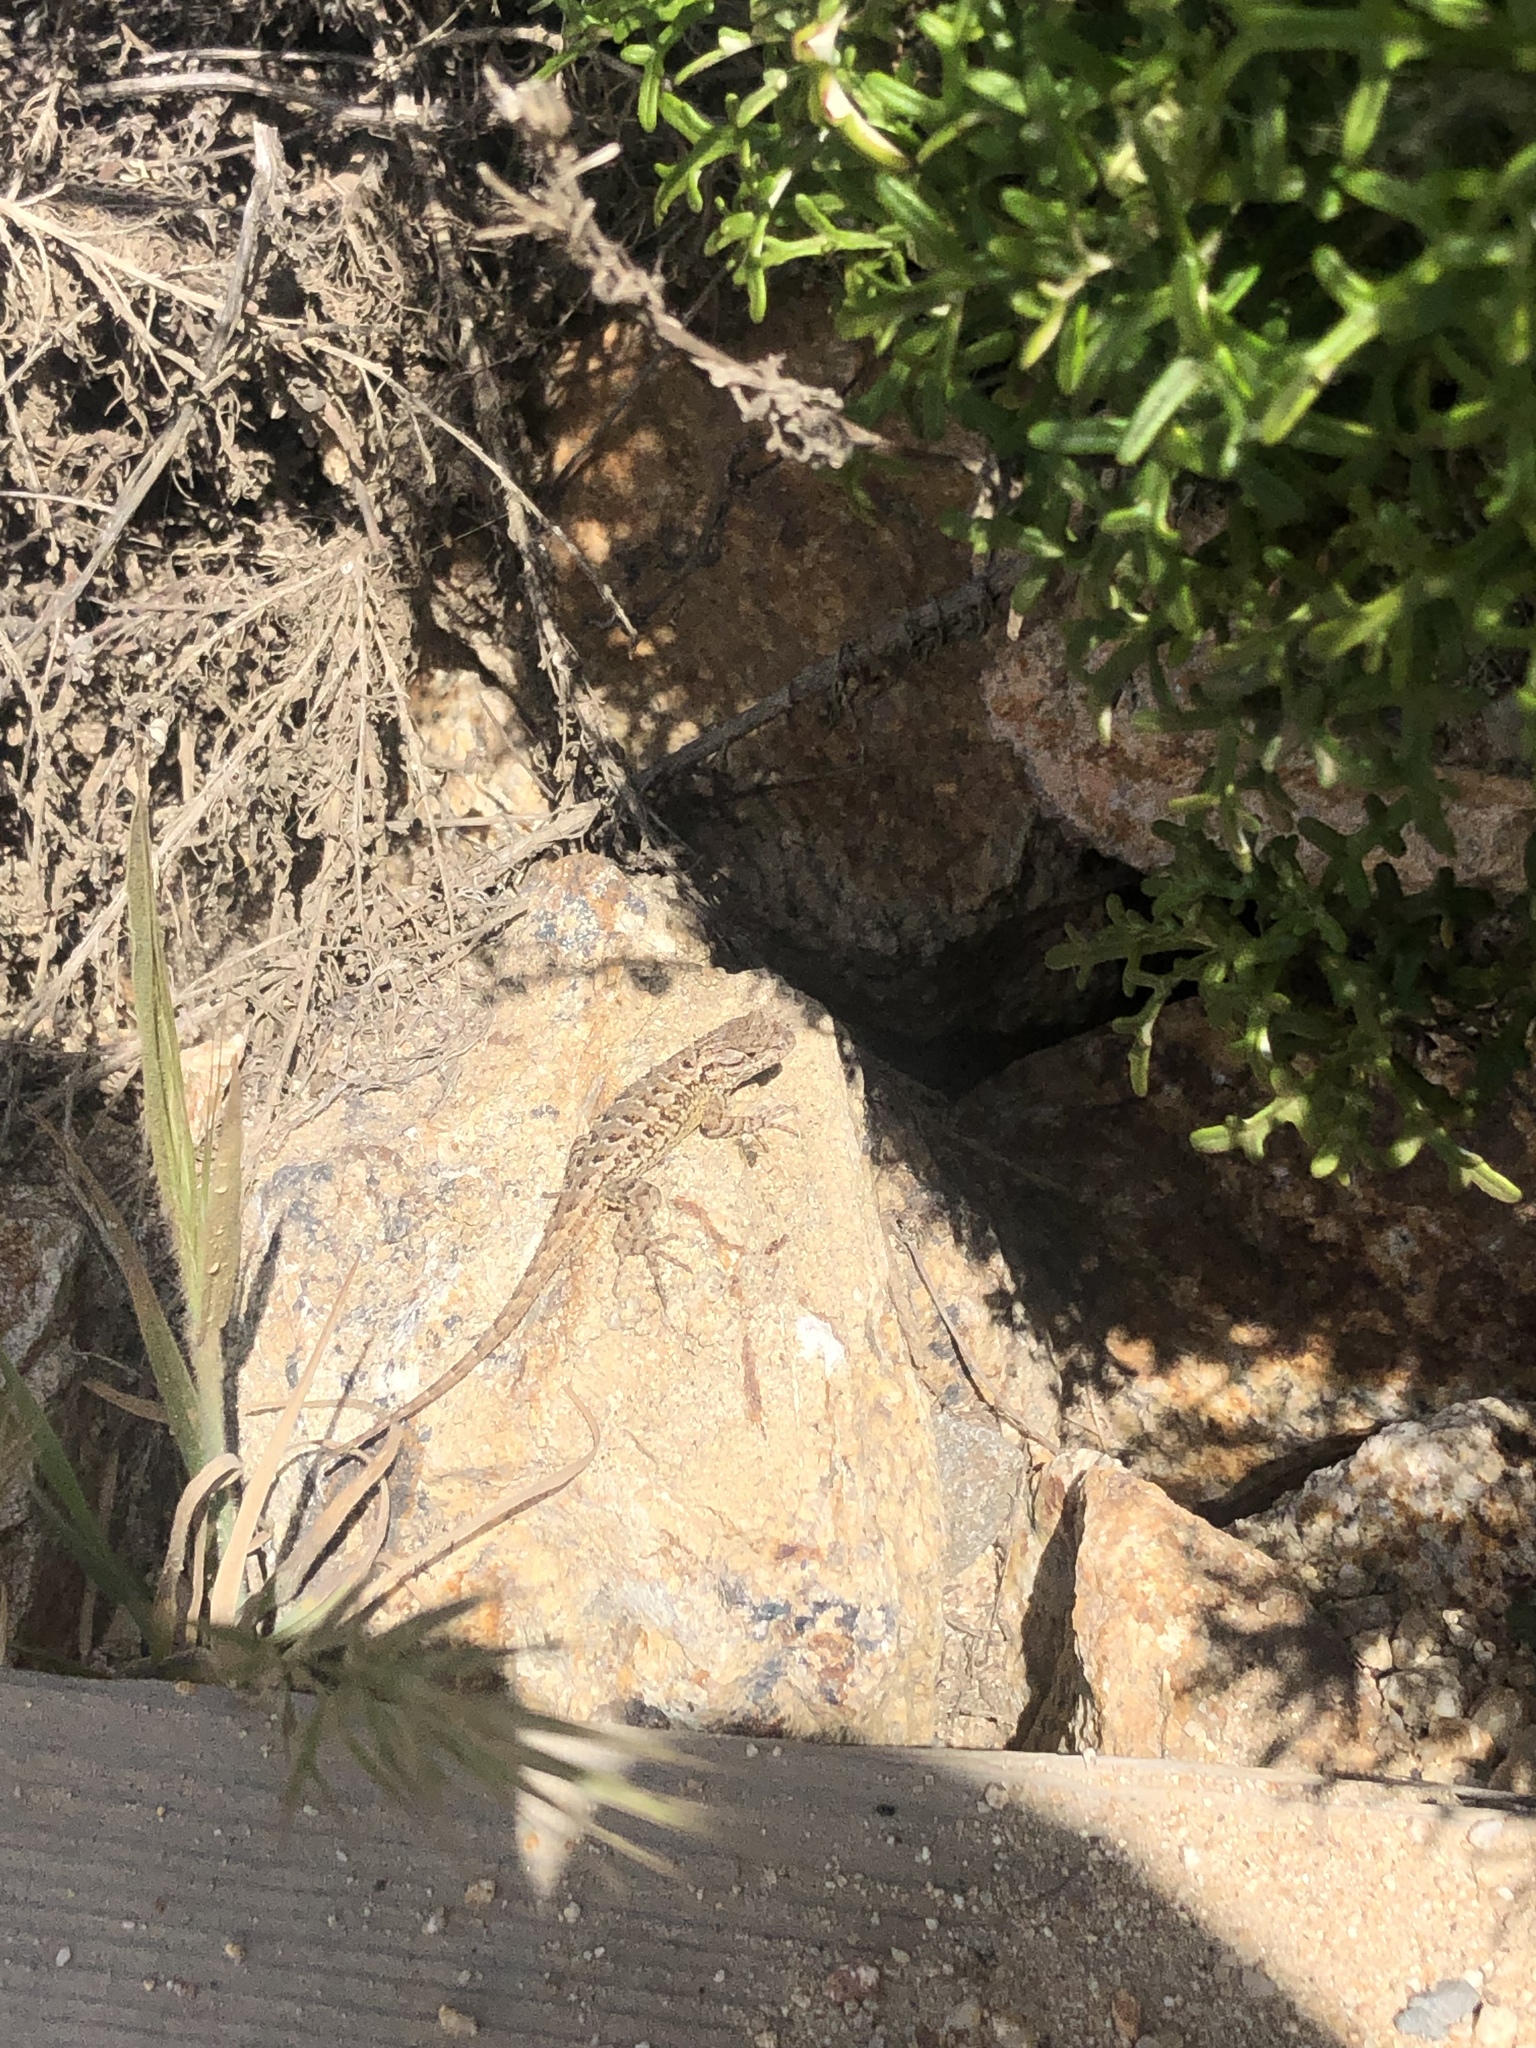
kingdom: Animalia
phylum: Chordata
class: Squamata
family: Phrynosomatidae
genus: Sceloporus
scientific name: Sceloporus occidentalis
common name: Western fence lizard
